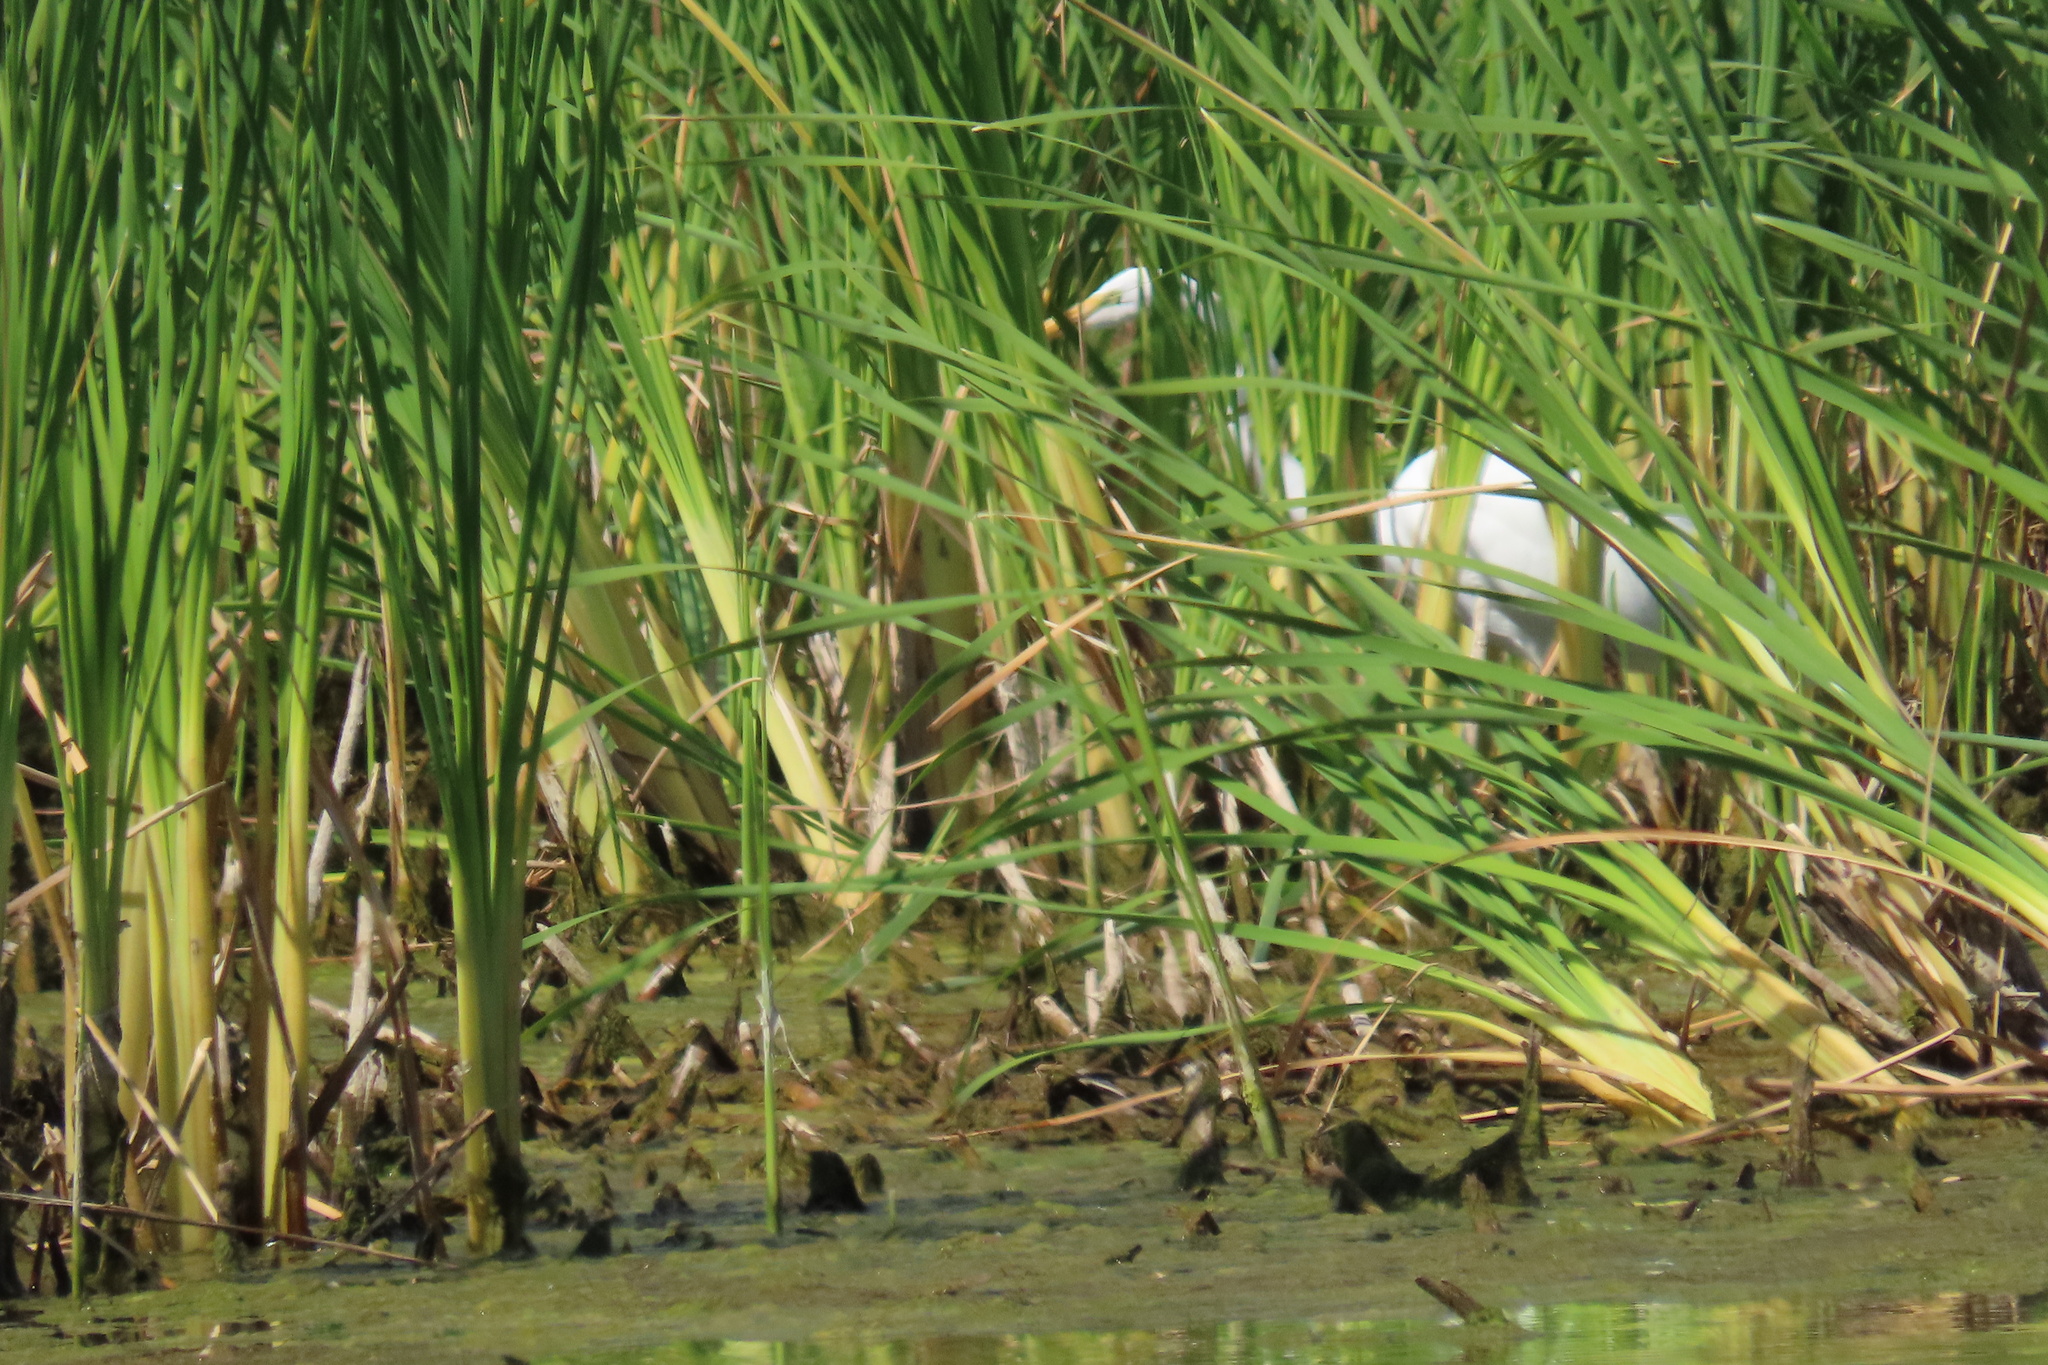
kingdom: Animalia
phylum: Chordata
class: Aves
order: Pelecaniformes
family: Ardeidae
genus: Ardea
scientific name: Ardea alba
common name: Great egret
